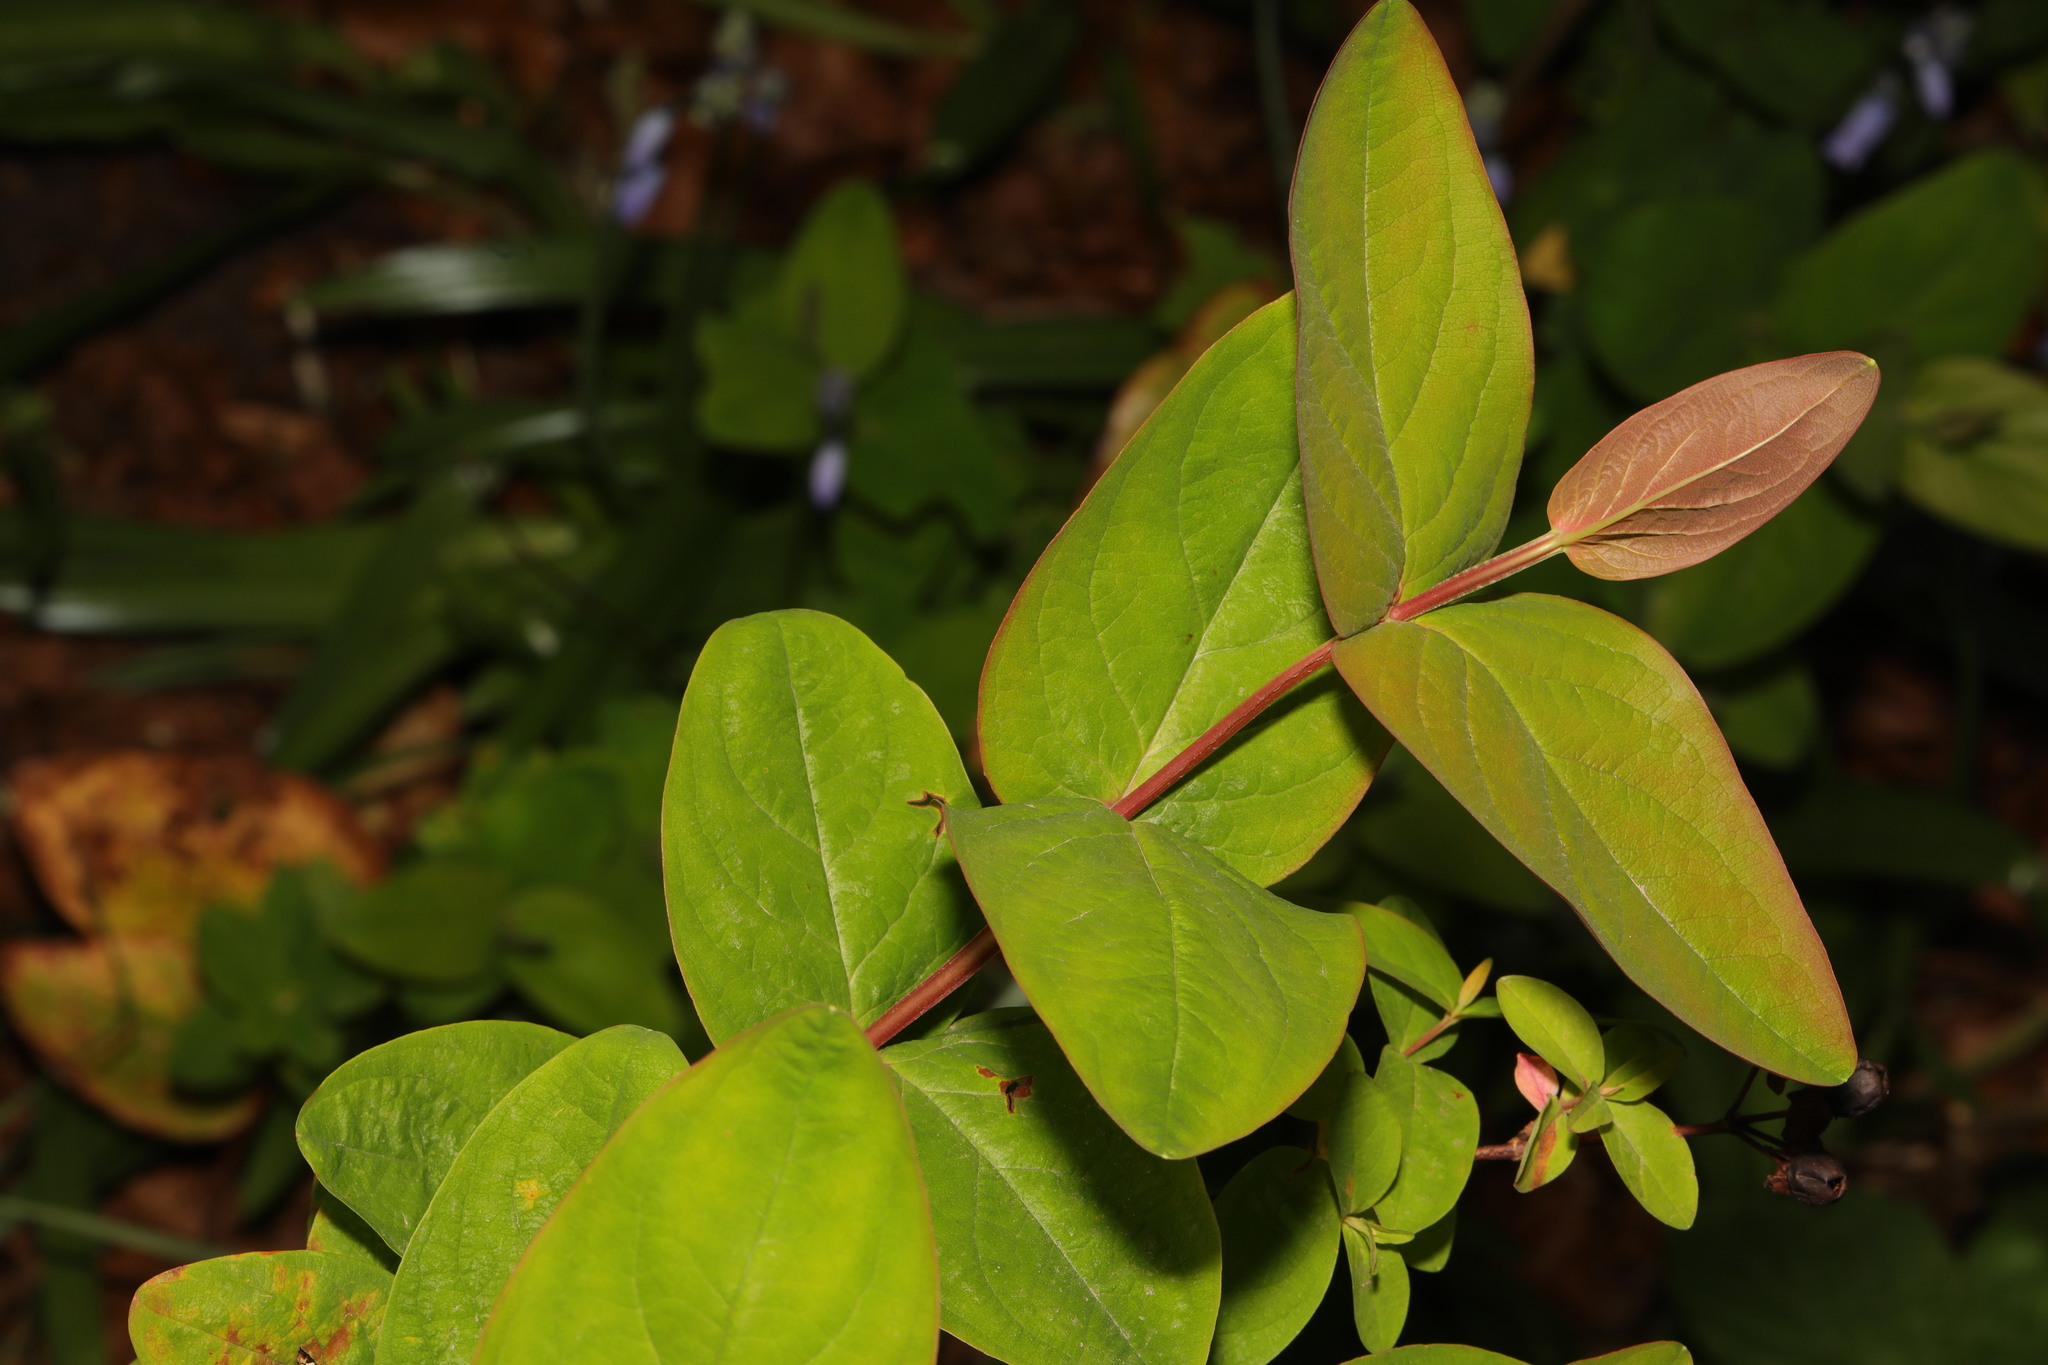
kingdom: Plantae
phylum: Tracheophyta
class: Magnoliopsida
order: Malpighiales
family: Hypericaceae
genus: Hypericum
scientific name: Hypericum androsaemum
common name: Sweet-amber
